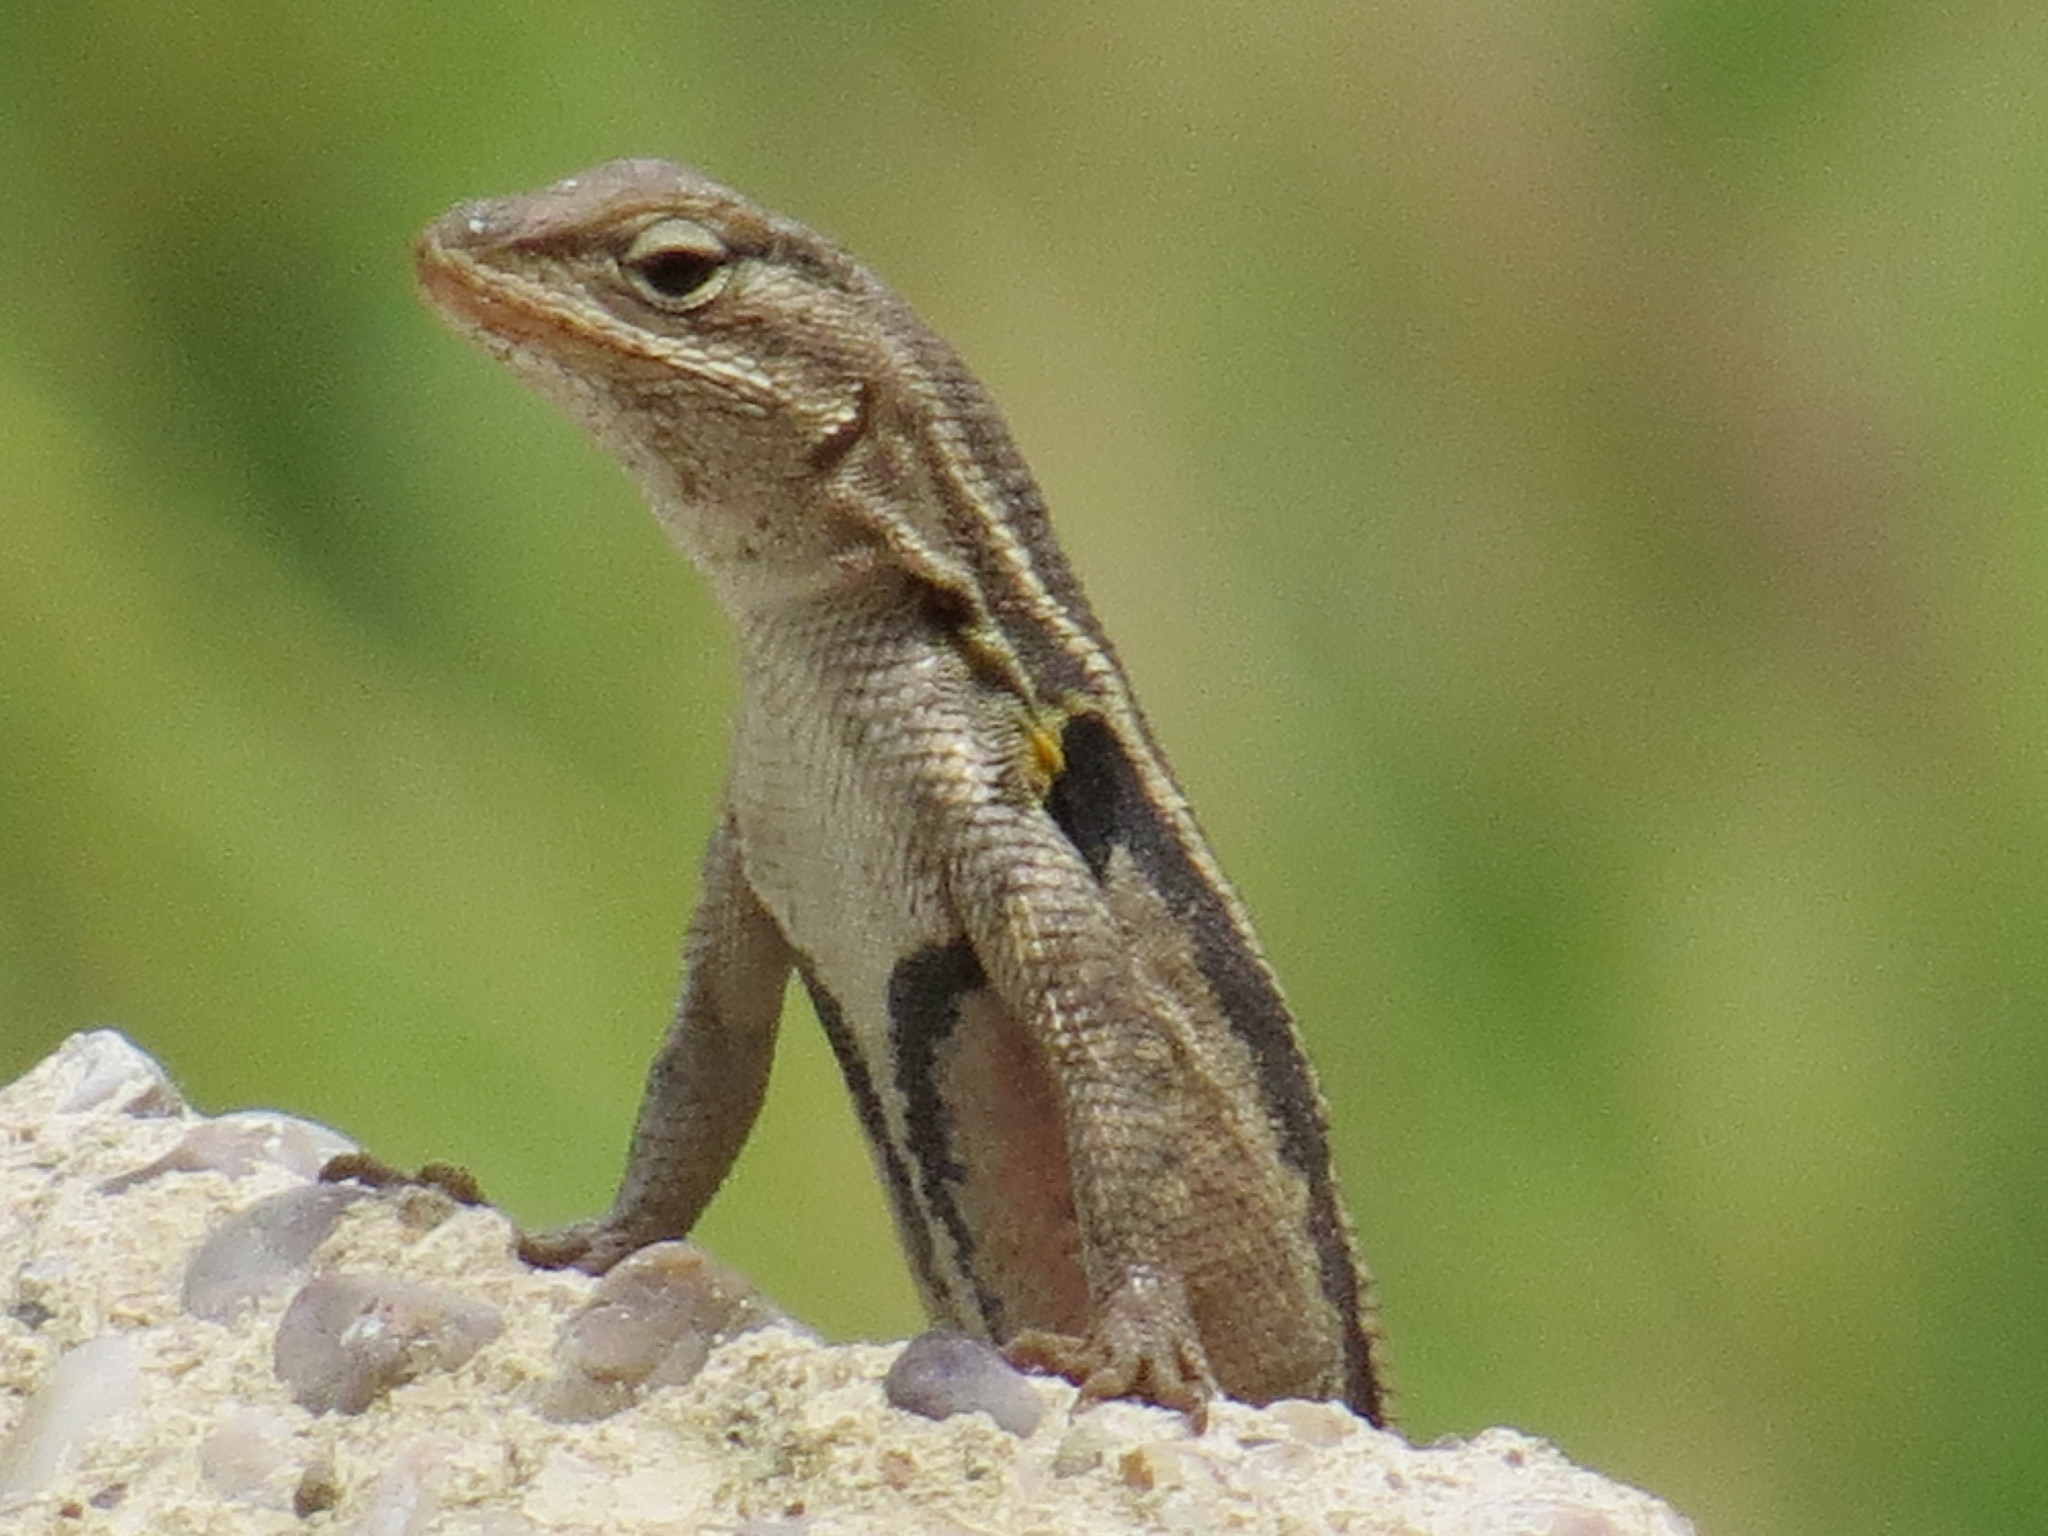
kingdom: Animalia
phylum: Chordata
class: Squamata
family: Phrynosomatidae
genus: Sceloporus
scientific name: Sceloporus variabilis
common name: Rosebelly lizard
